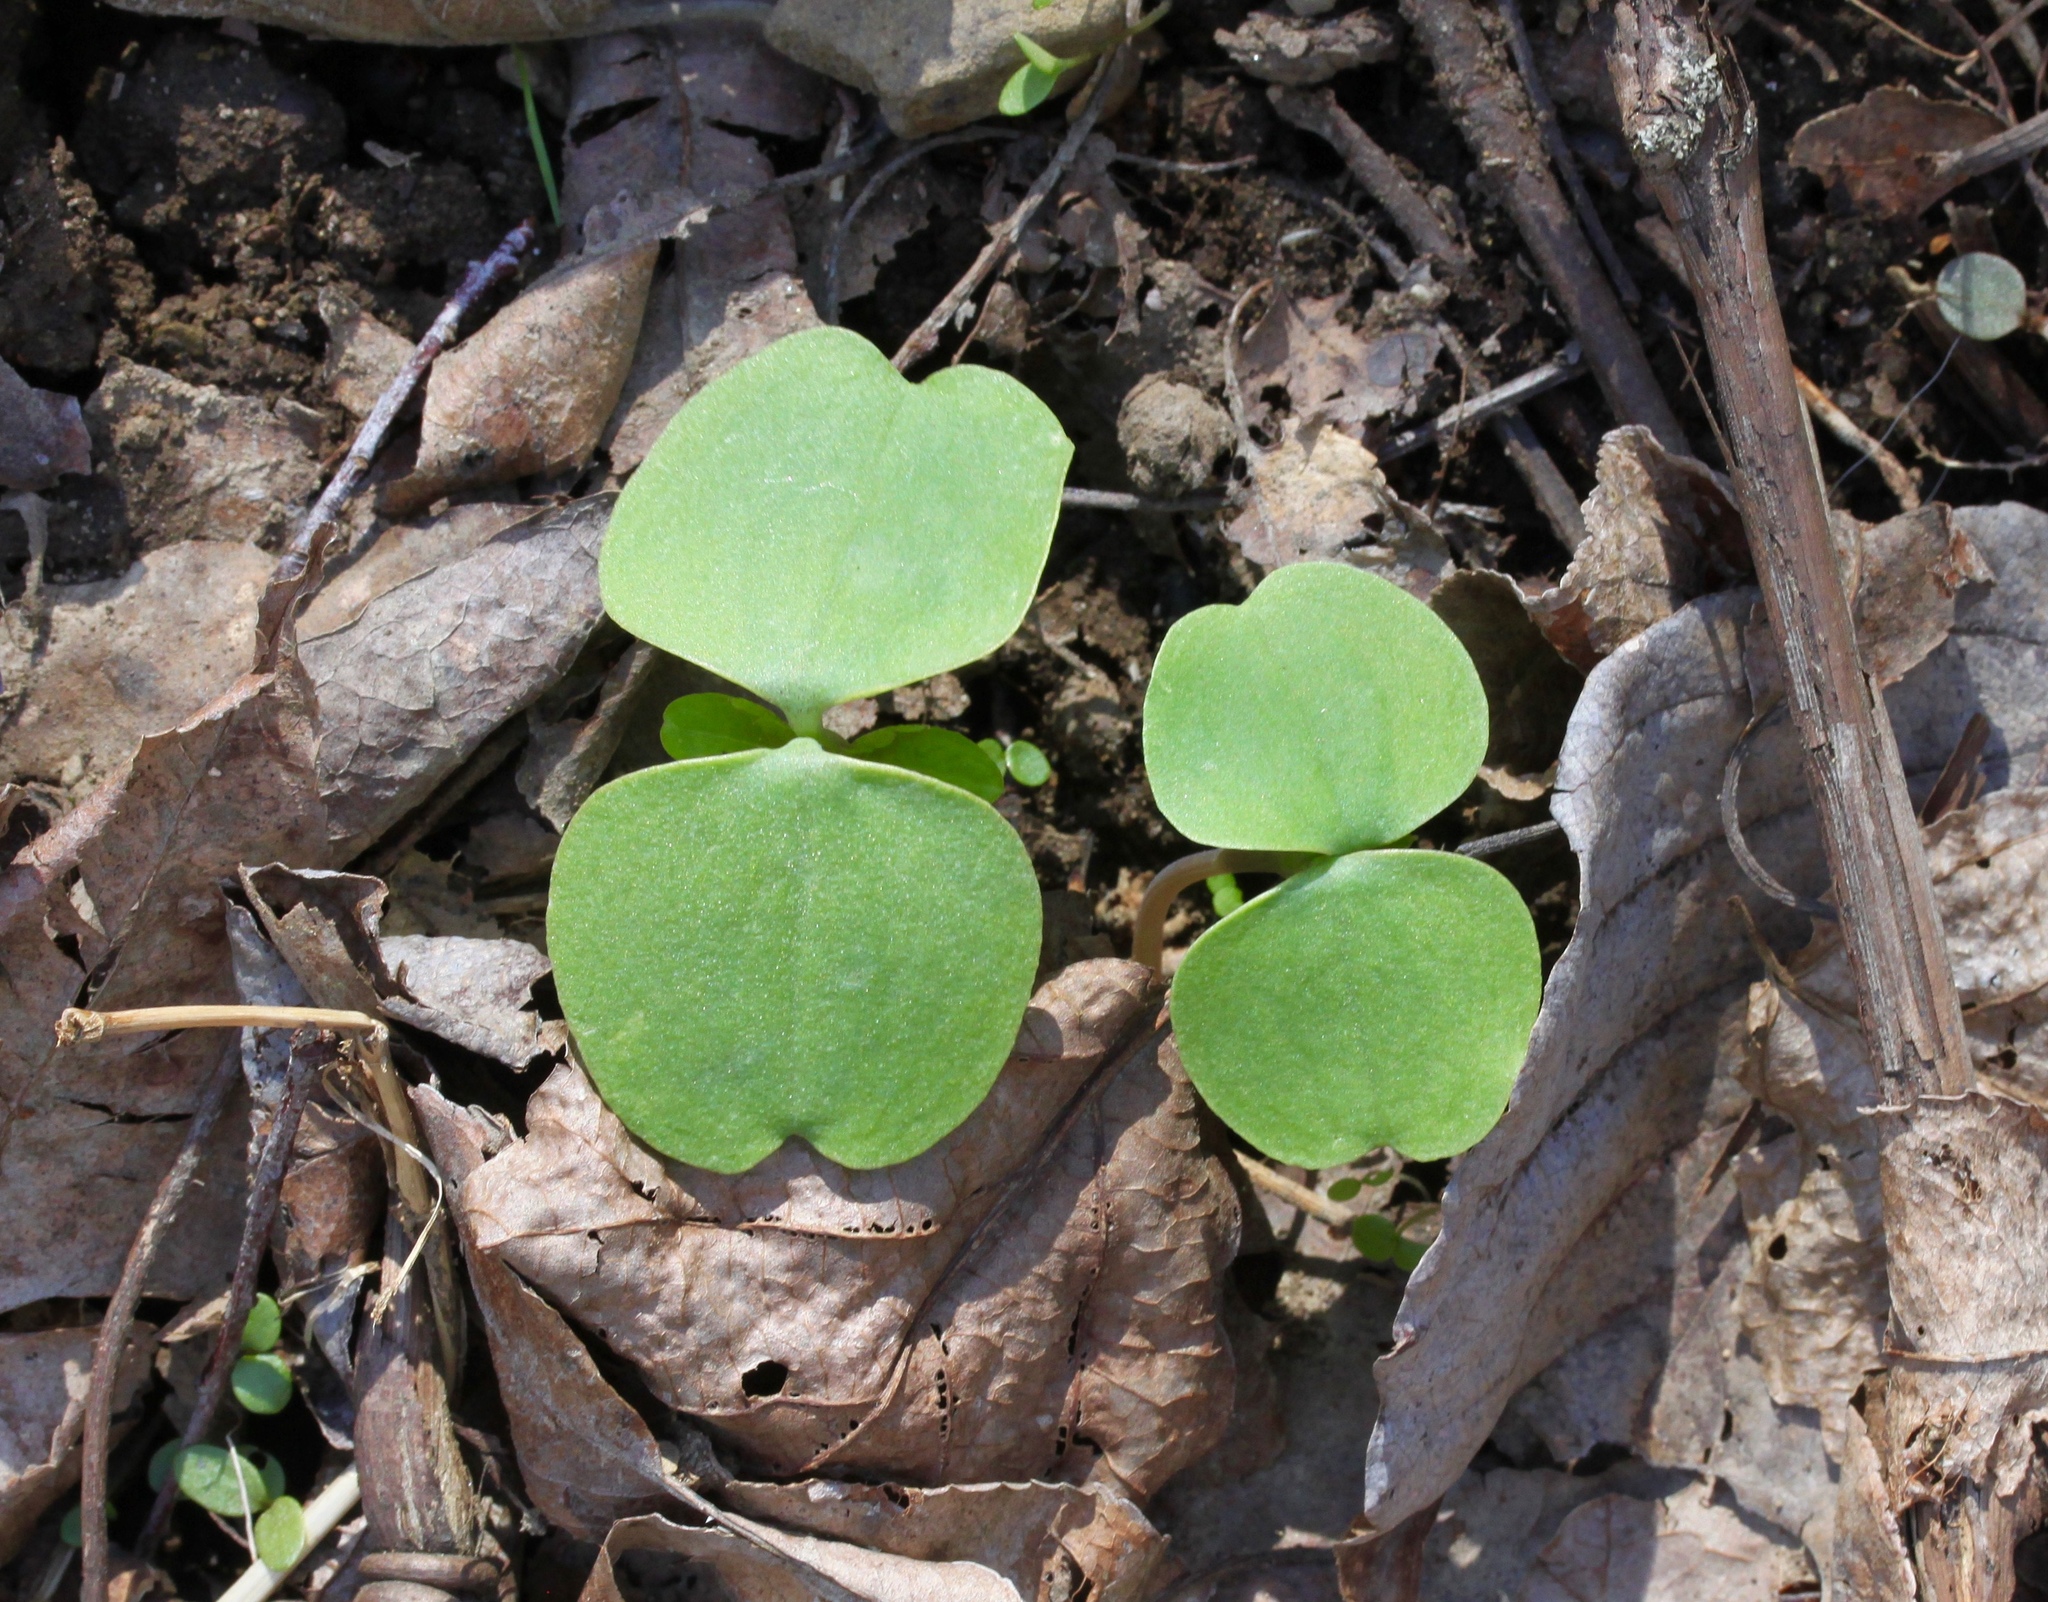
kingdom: Plantae
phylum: Tracheophyta
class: Magnoliopsida
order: Ericales
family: Balsaminaceae
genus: Impatiens
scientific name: Impatiens capensis
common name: Orange balsam
